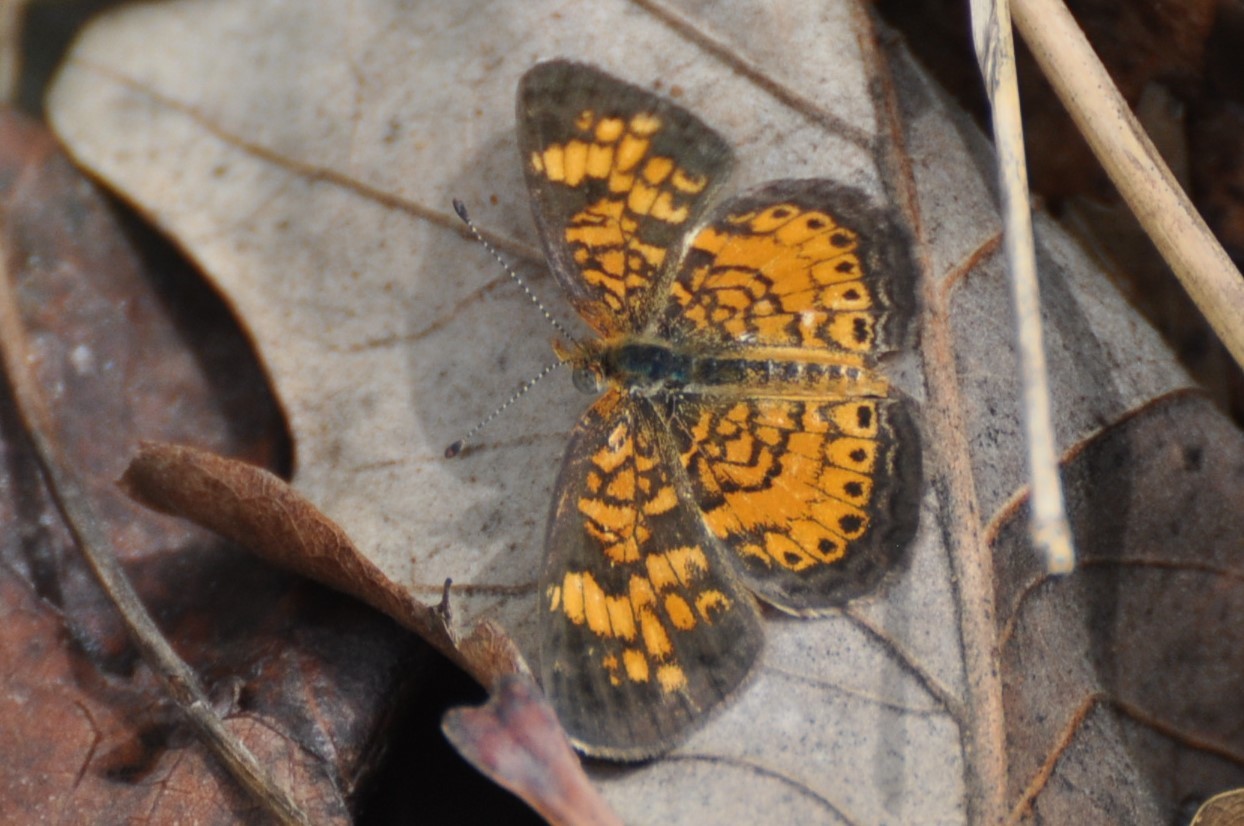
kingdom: Animalia
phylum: Arthropoda
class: Insecta
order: Lepidoptera
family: Nymphalidae
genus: Phyciodes
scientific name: Phyciodes tharos
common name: Pearl crescent
